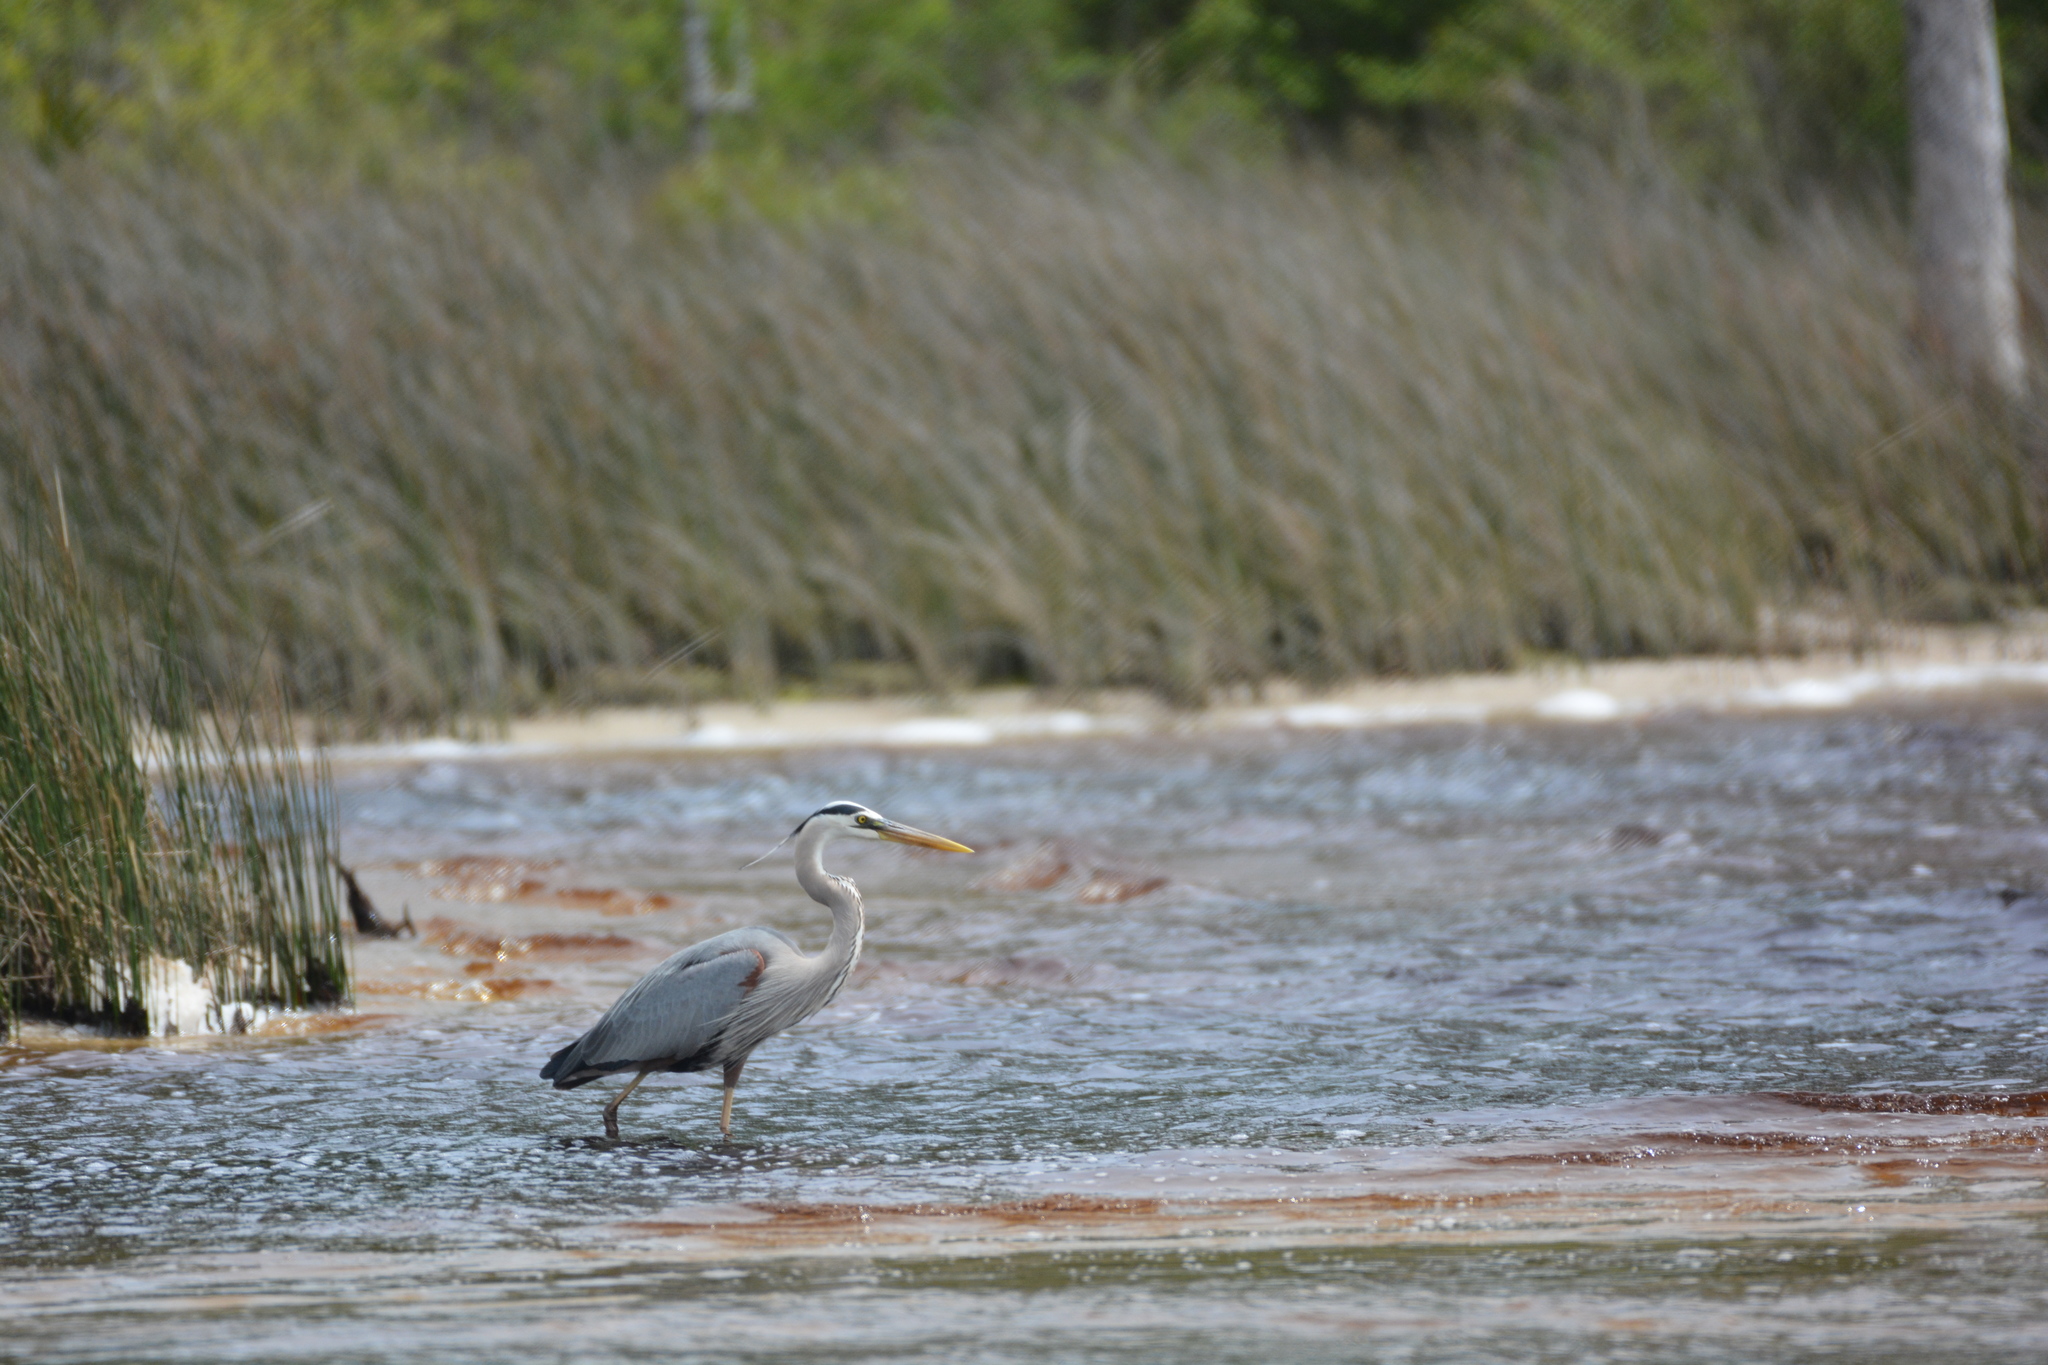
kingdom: Animalia
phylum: Chordata
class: Aves
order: Pelecaniformes
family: Ardeidae
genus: Ardea
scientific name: Ardea herodias
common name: Great blue heron
